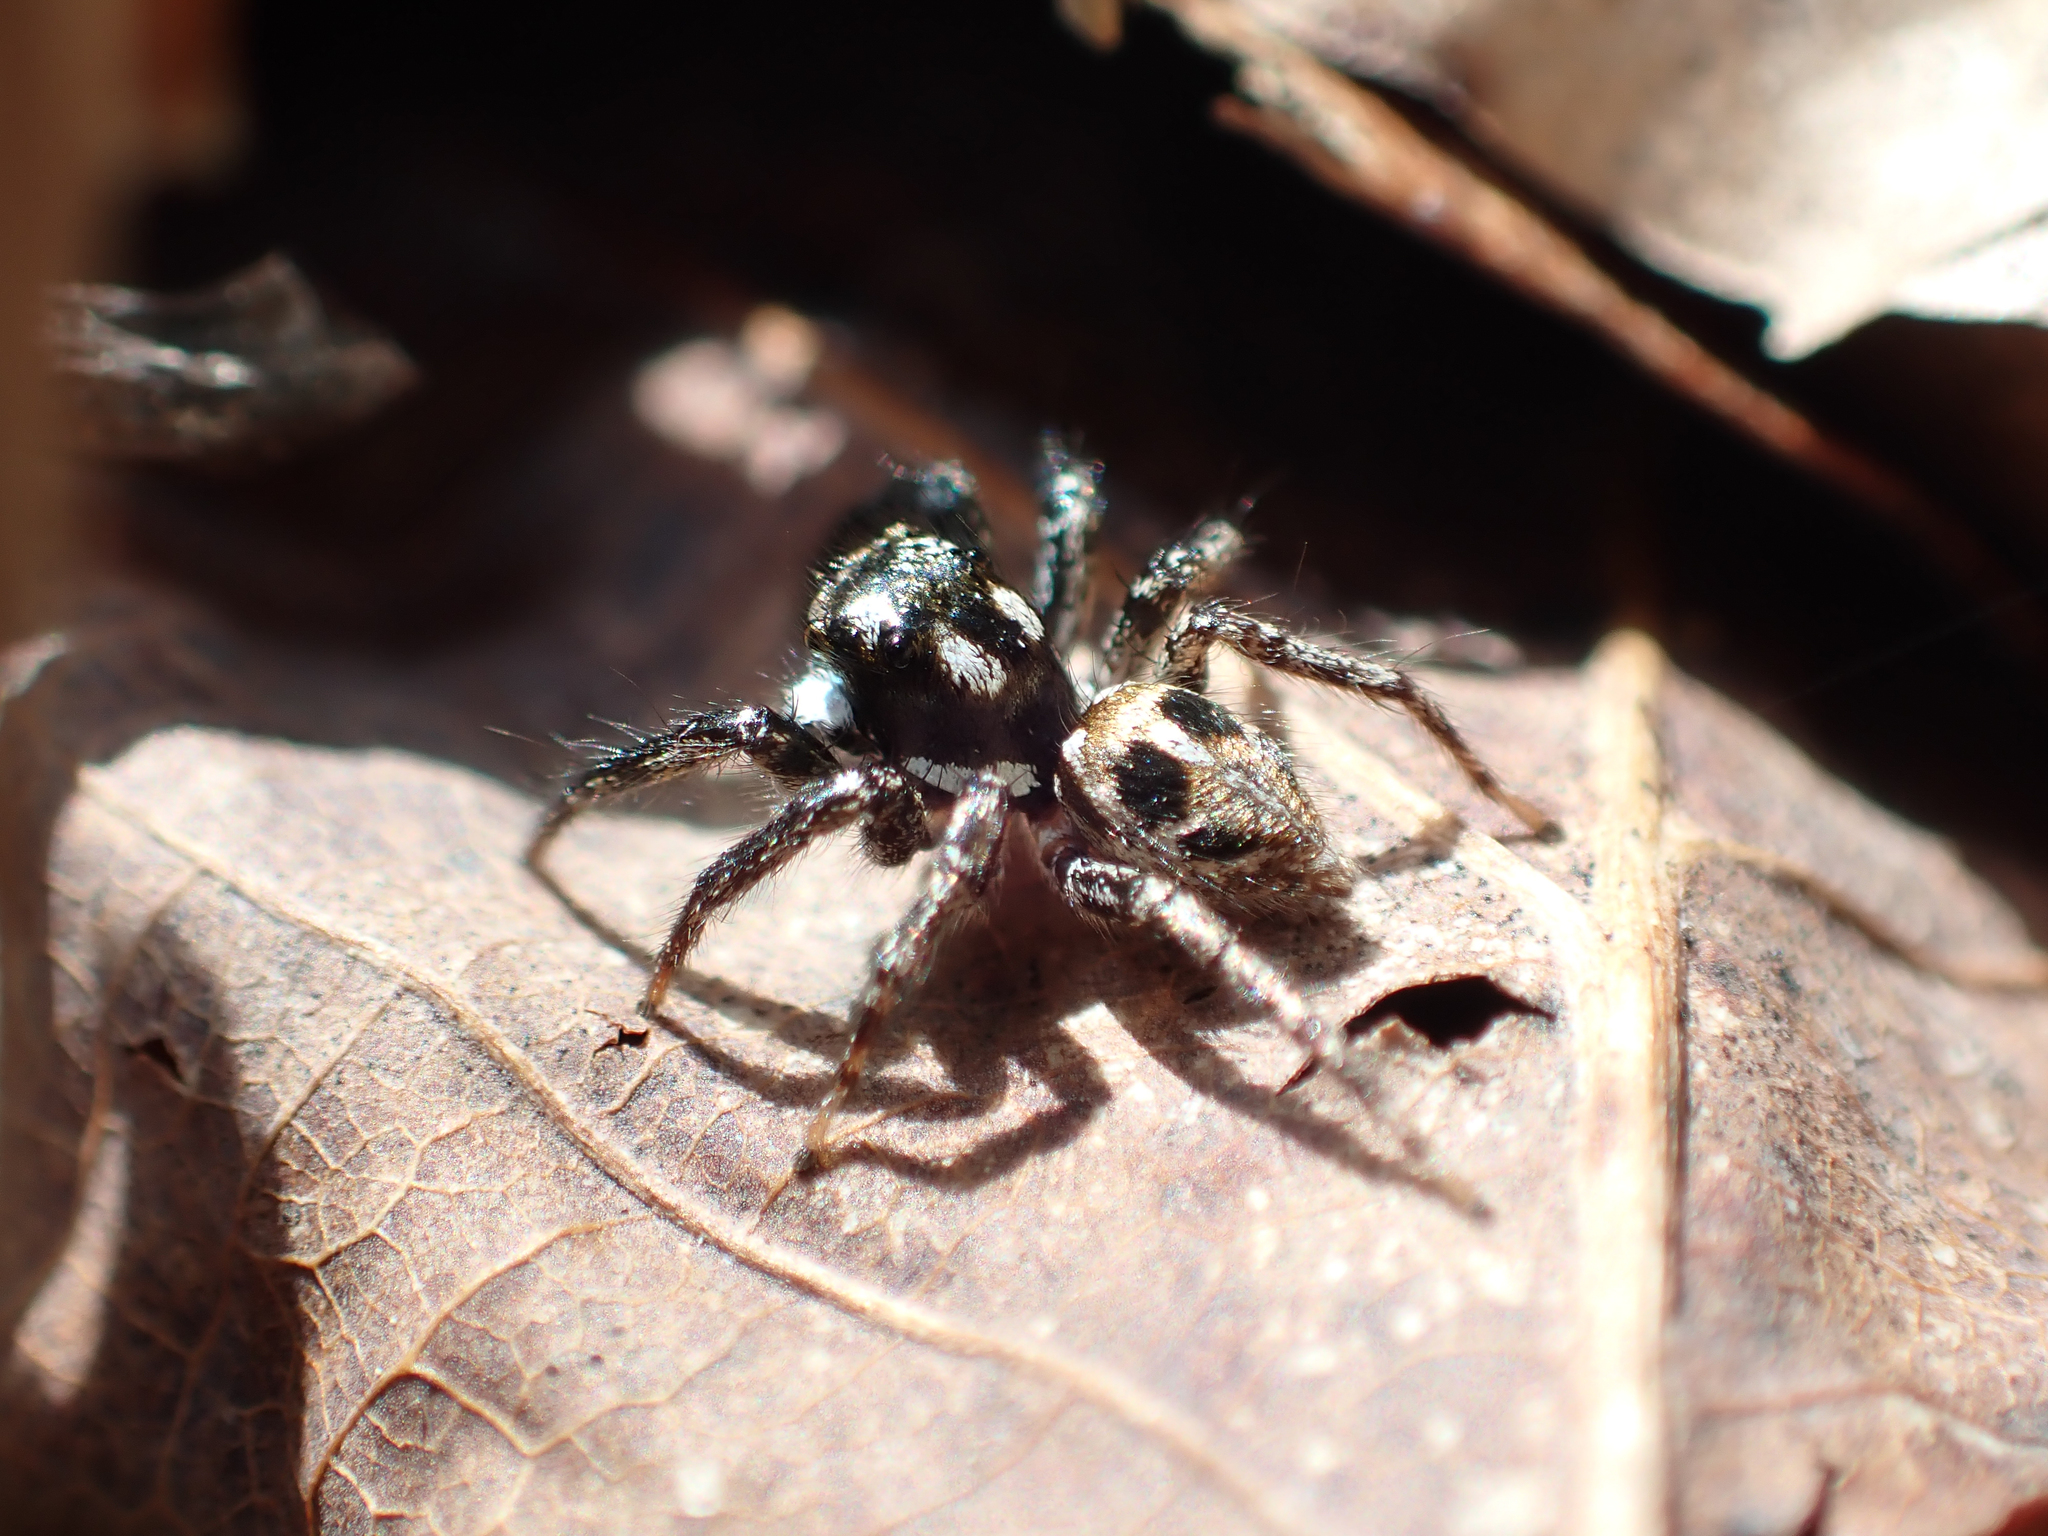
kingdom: Animalia
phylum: Arthropoda
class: Arachnida
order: Araneae
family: Salticidae
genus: Anasaitis
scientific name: Anasaitis canosa
